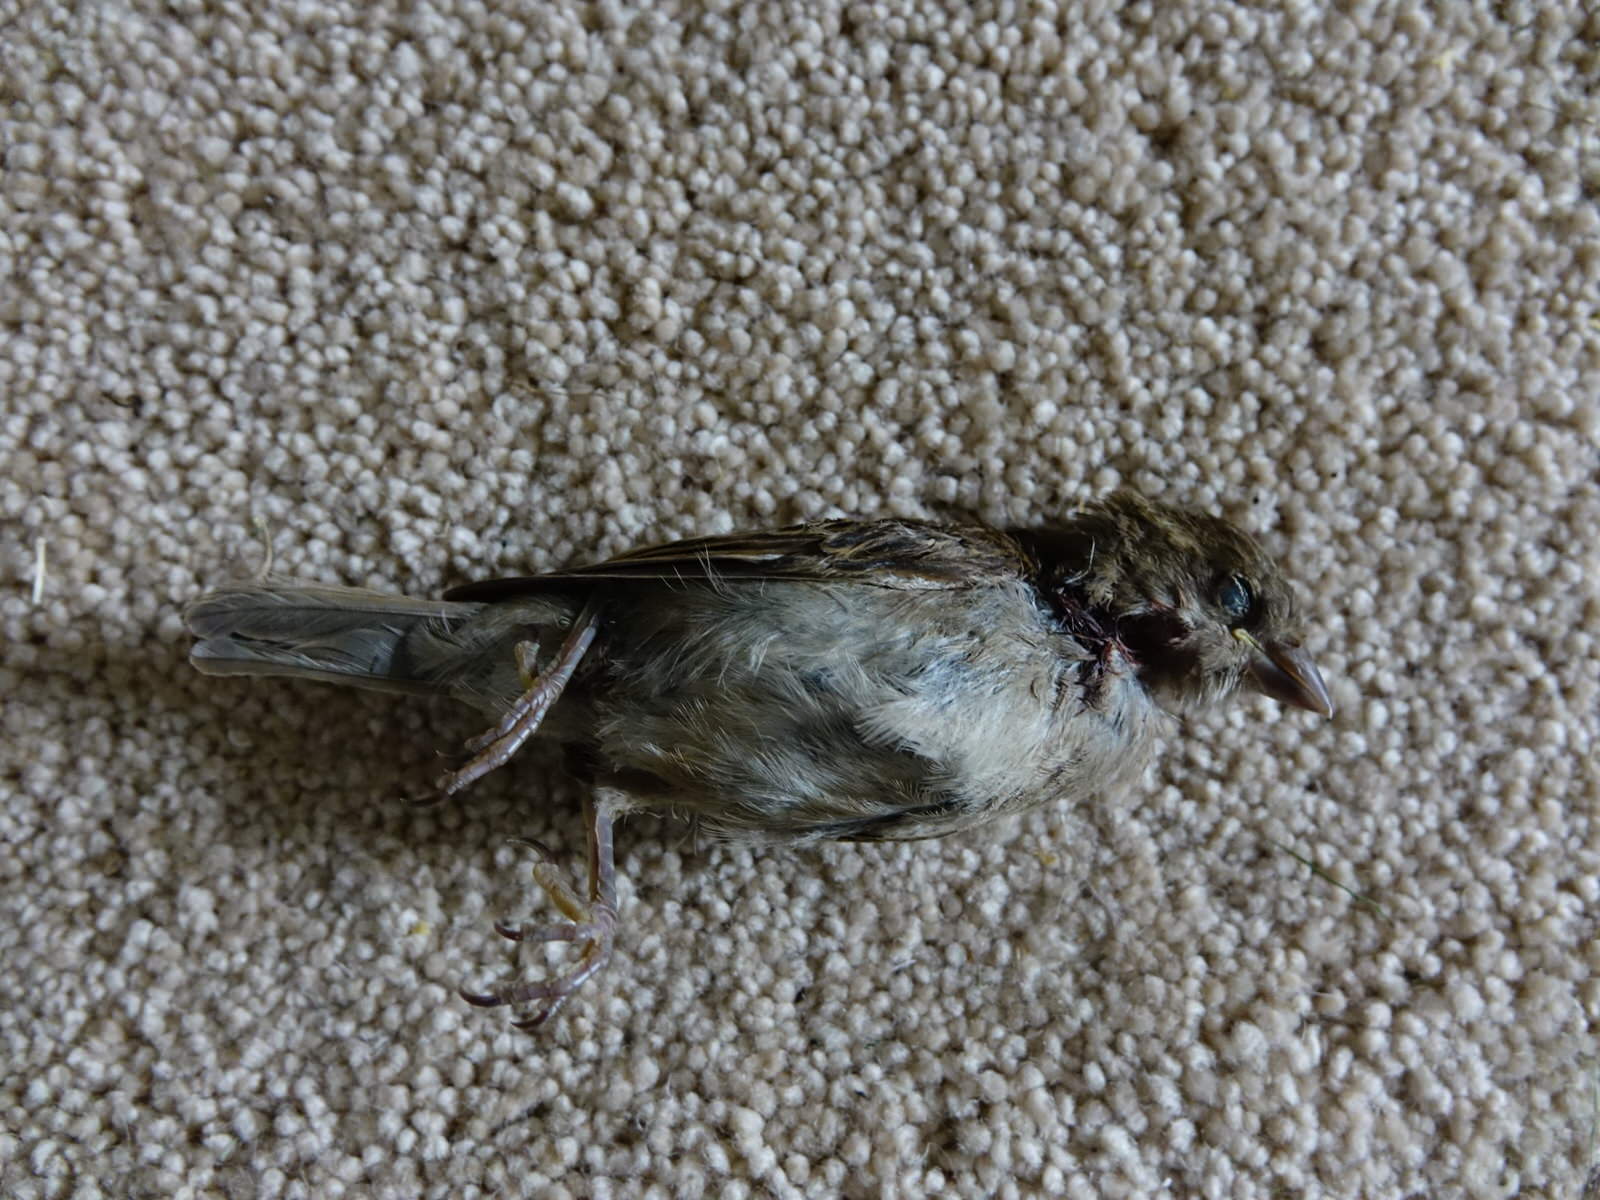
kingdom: Animalia
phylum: Chordata
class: Aves
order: Passeriformes
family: Passeridae
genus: Passer
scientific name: Passer domesticus
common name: House sparrow
